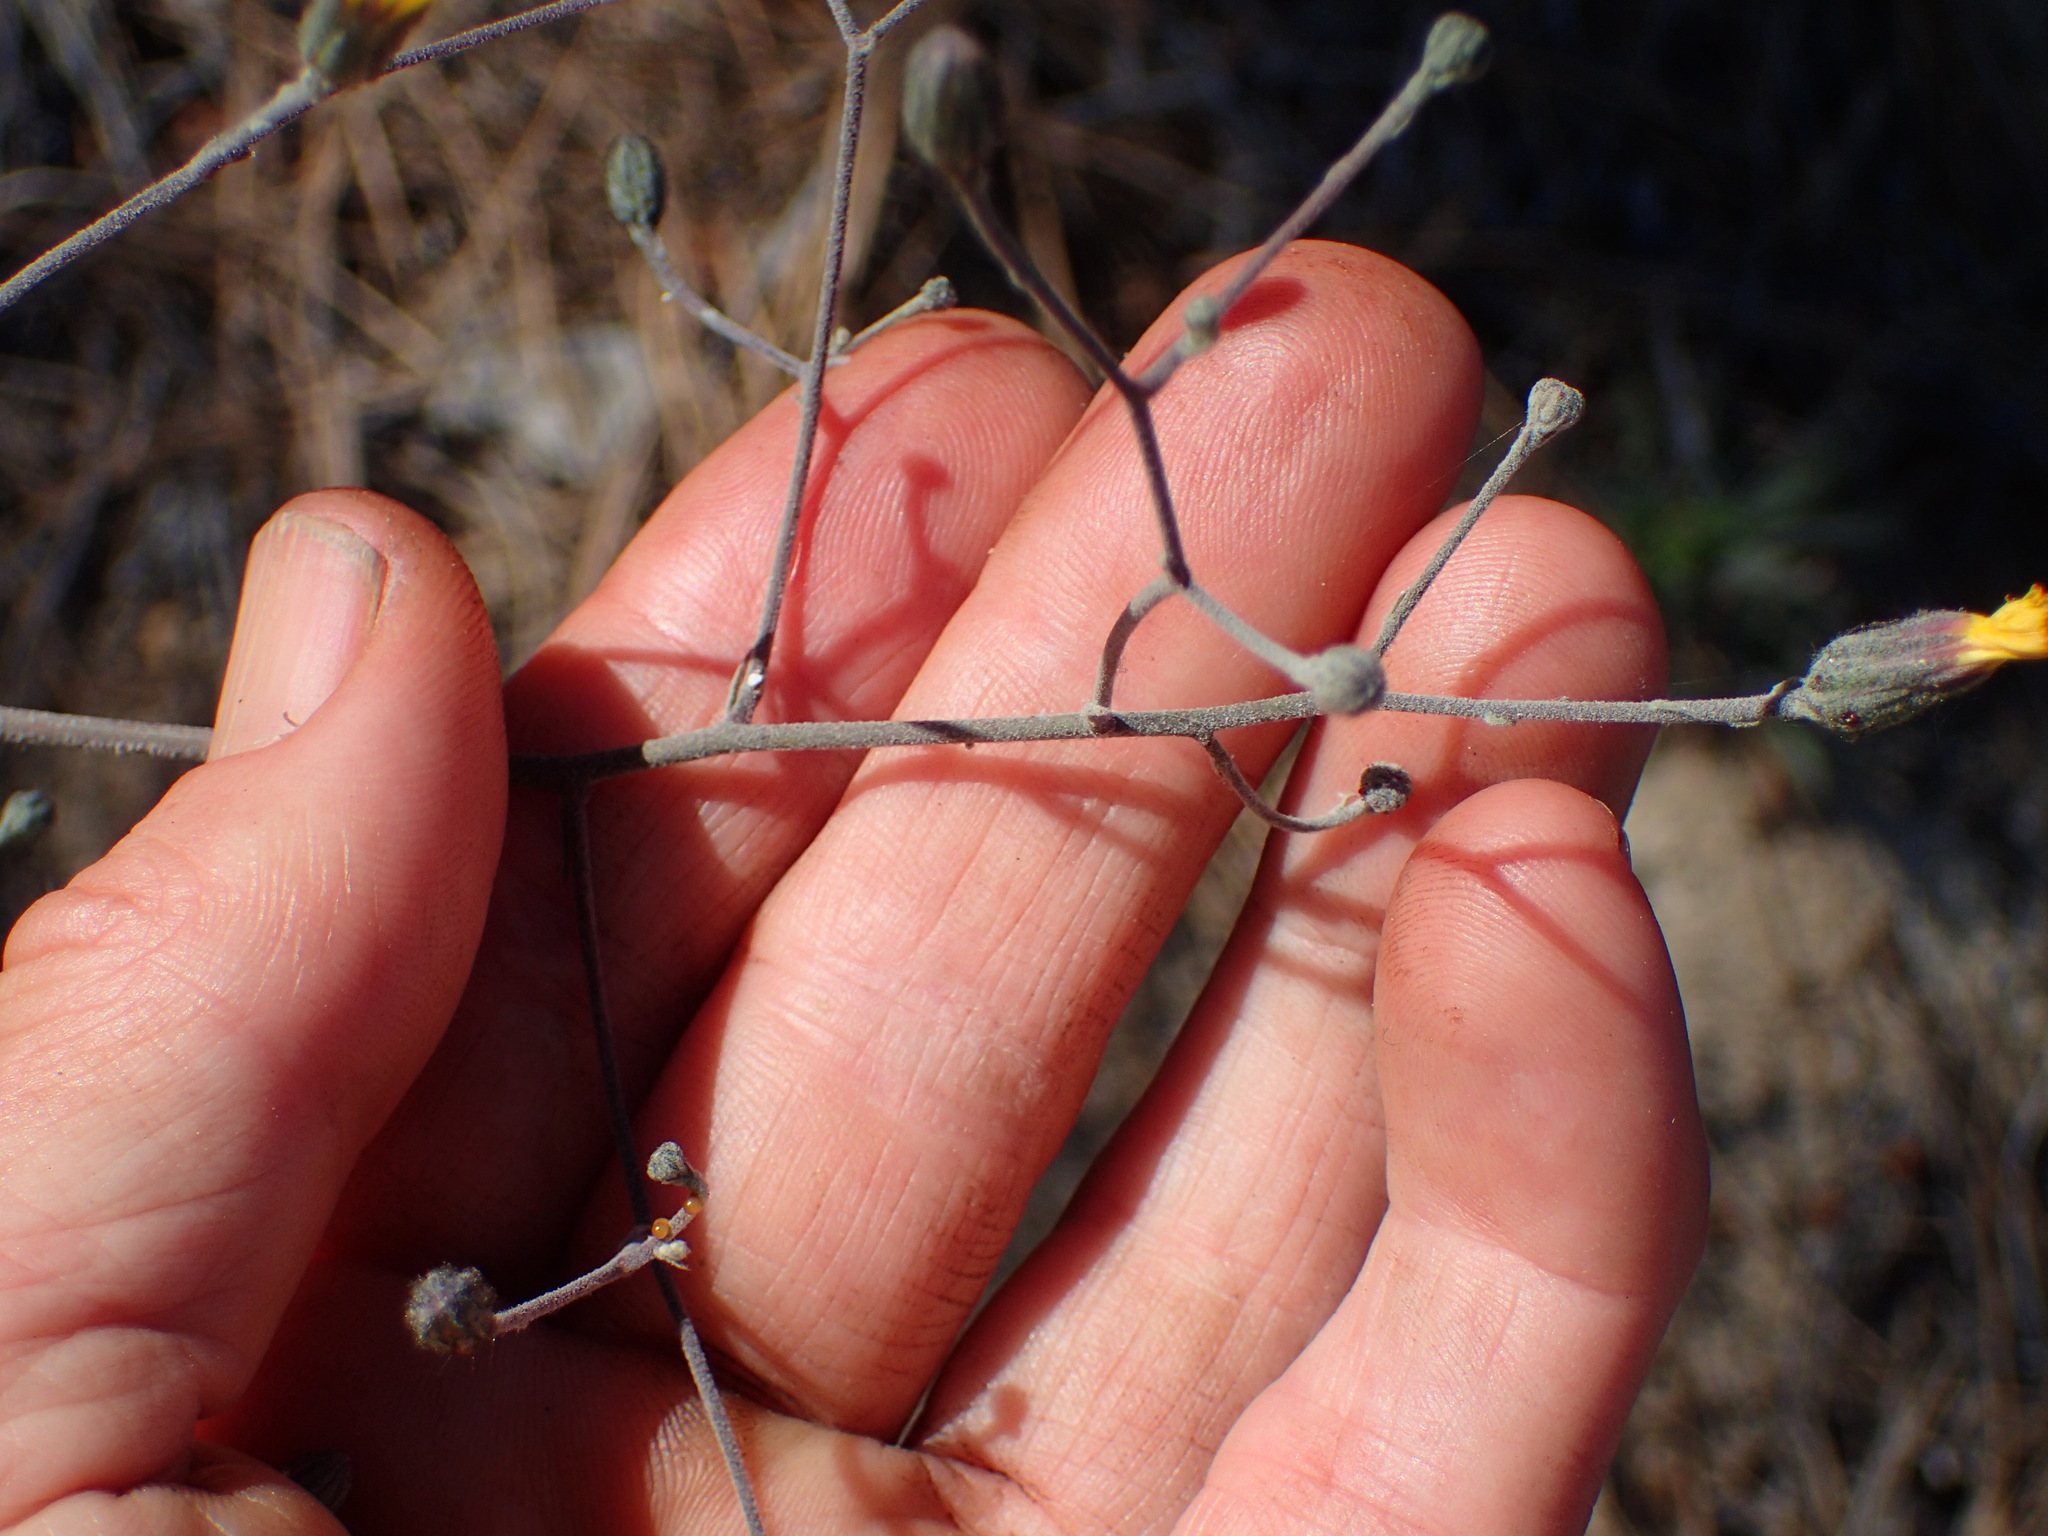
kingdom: Plantae
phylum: Tracheophyta
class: Magnoliopsida
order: Asterales
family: Asteraceae
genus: Hieracium
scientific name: Hieracium argutum
